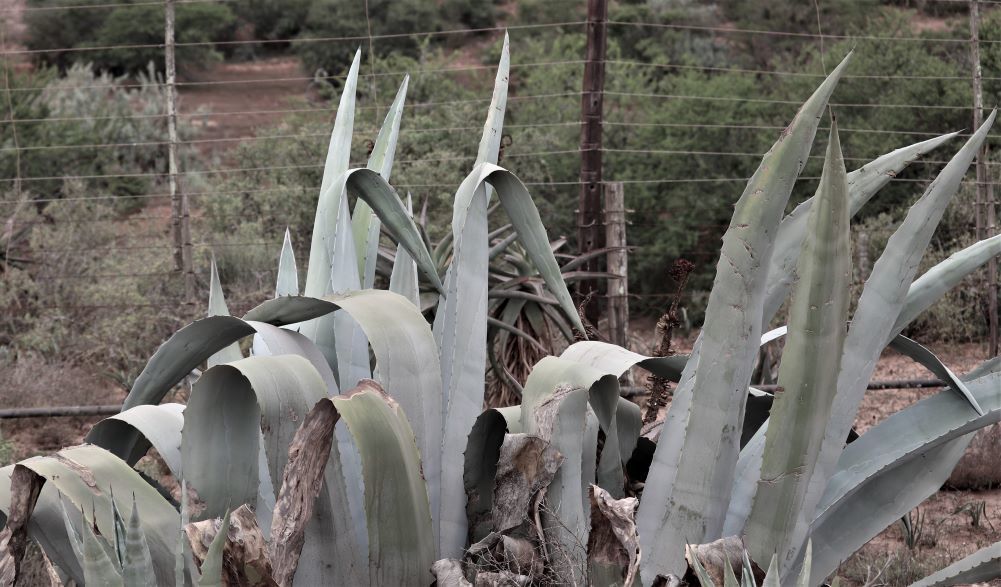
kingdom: Plantae
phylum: Tracheophyta
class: Liliopsida
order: Asparagales
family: Asparagaceae
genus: Agave
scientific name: Agave americana
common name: Centuryplant
